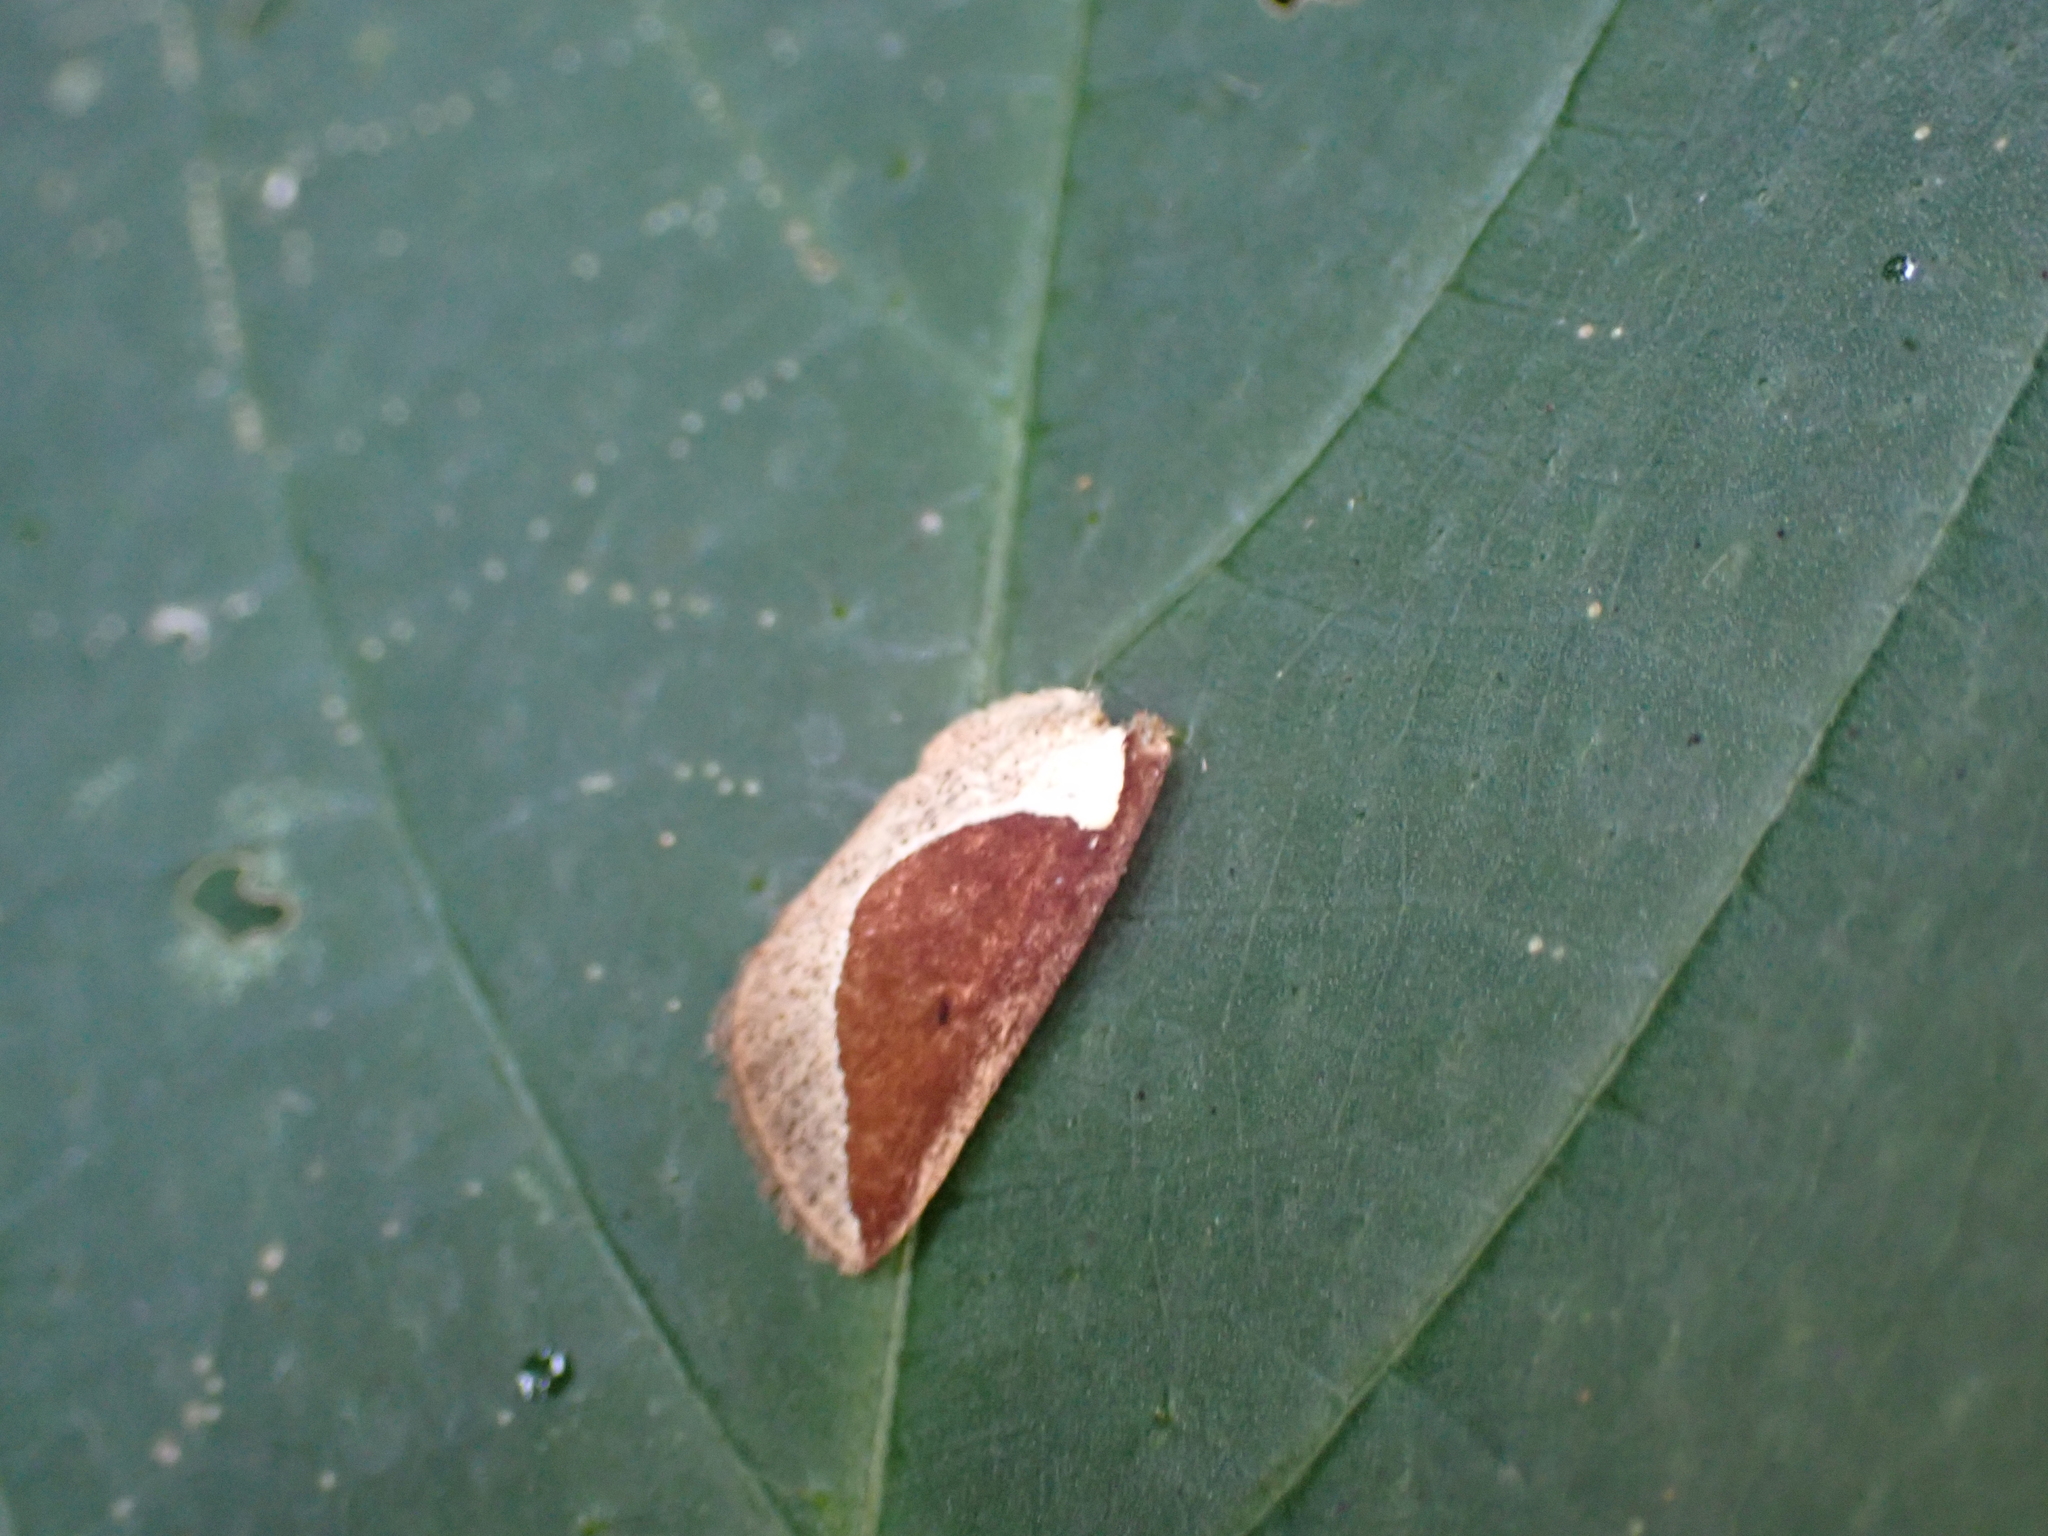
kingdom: Animalia
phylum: Arthropoda
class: Insecta
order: Lepidoptera
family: Limacodidae
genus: Prolimacodes
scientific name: Prolimacodes badia
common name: Skiff moth
